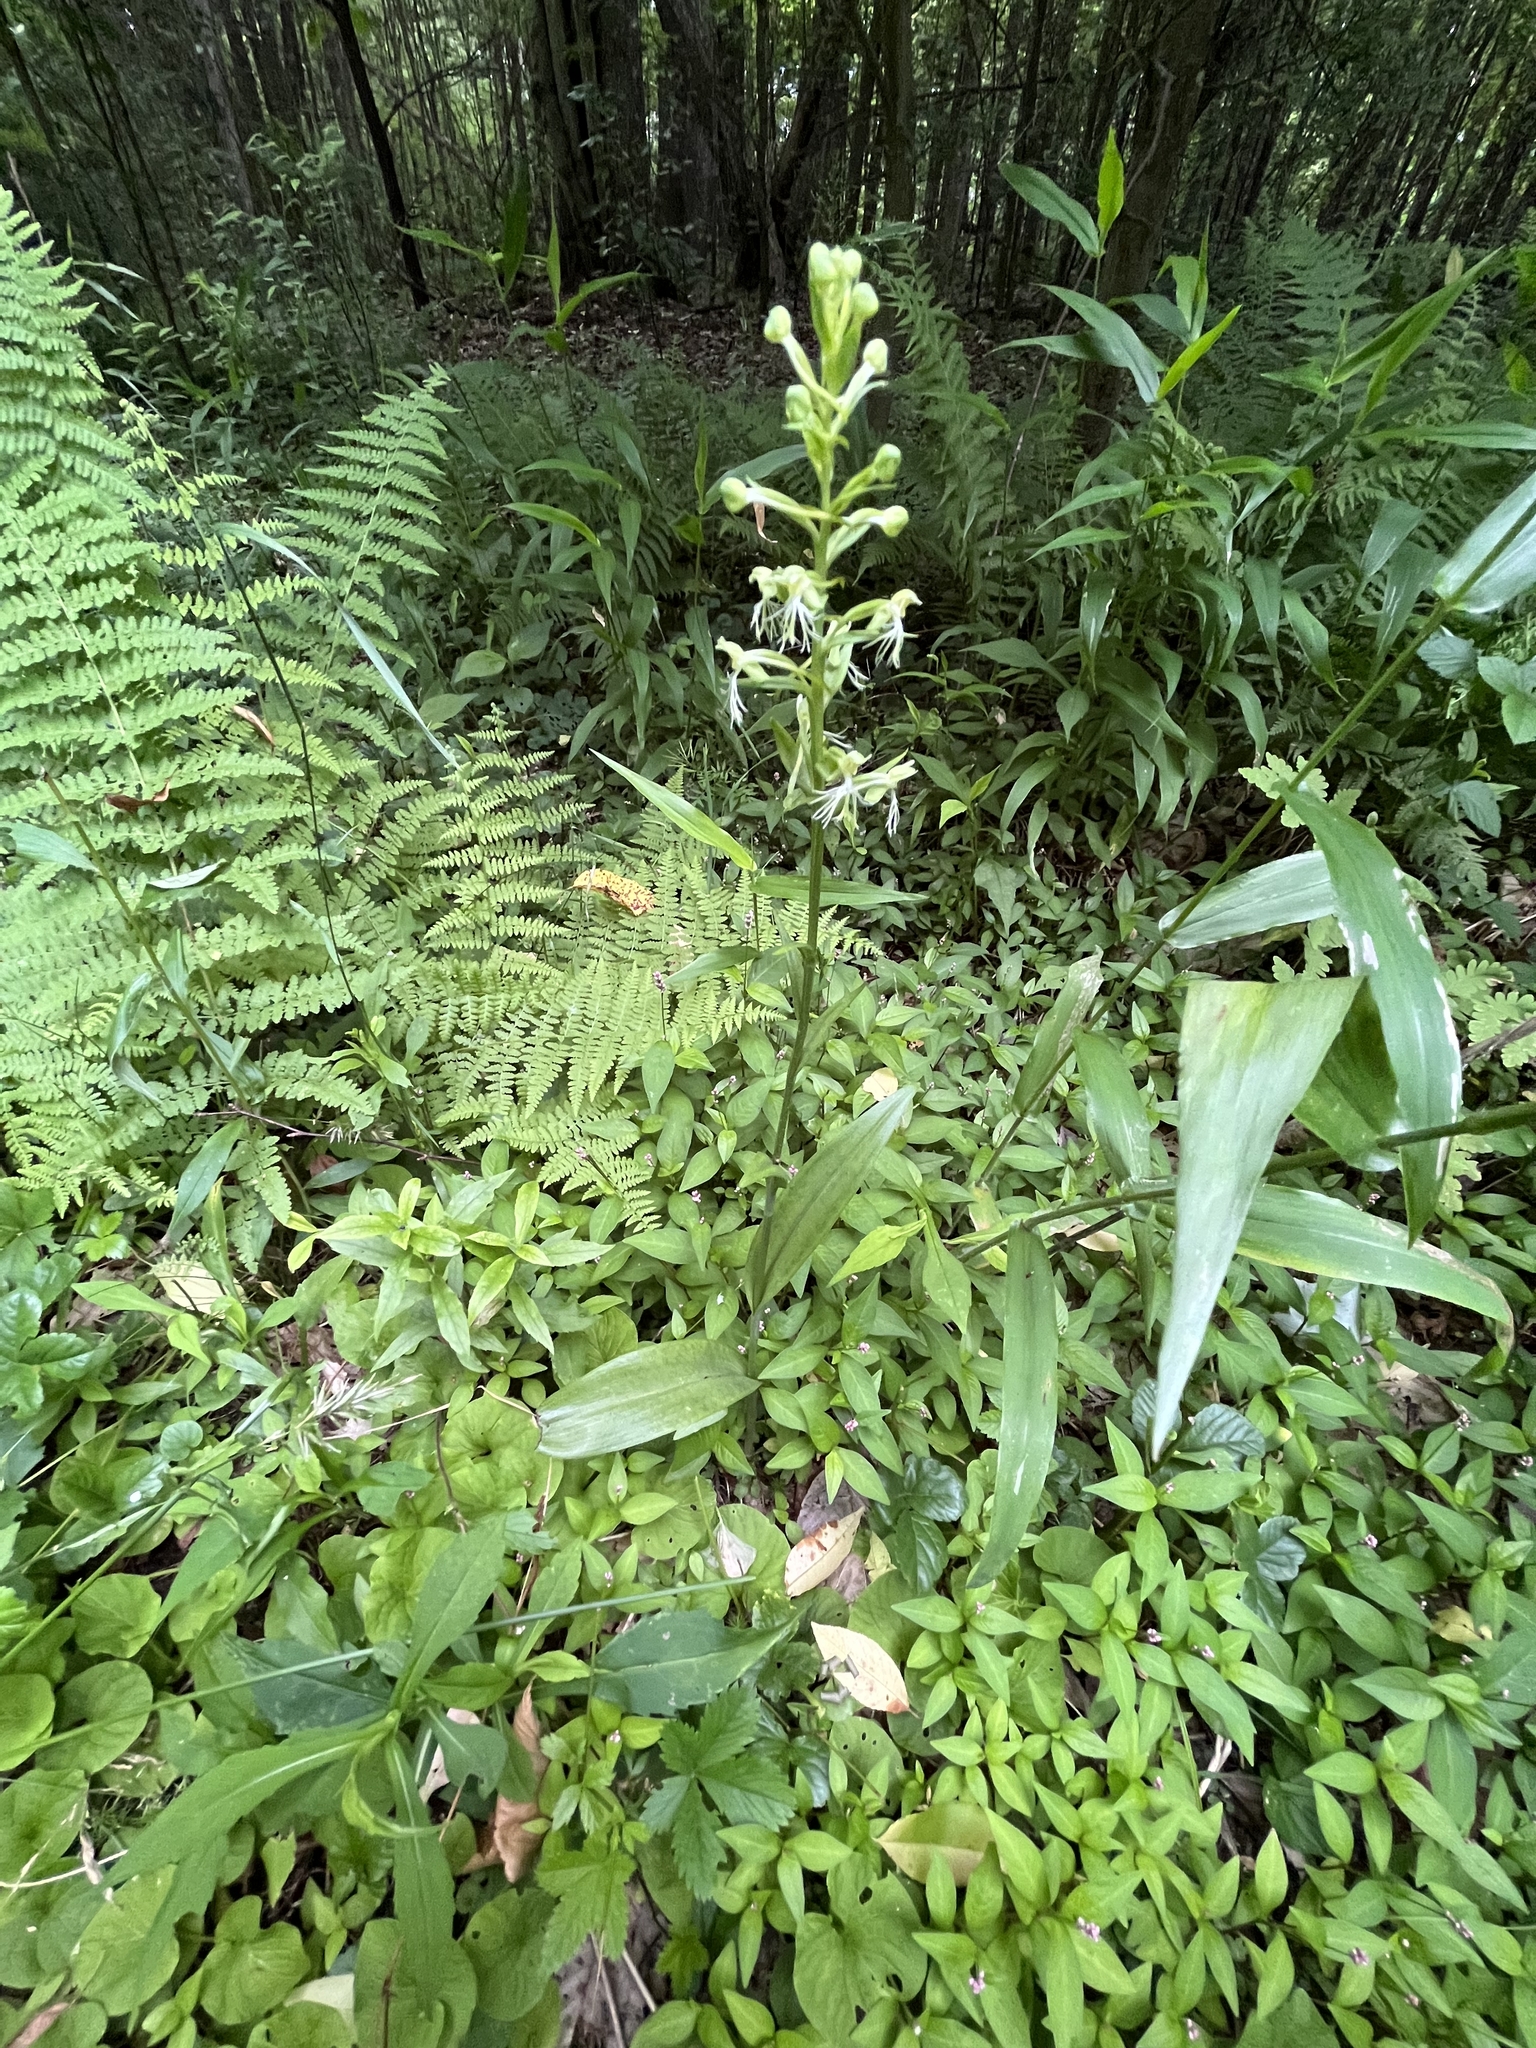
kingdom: Plantae
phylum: Tracheophyta
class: Liliopsida
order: Asparagales
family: Orchidaceae
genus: Platanthera
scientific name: Platanthera lacera
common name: Green fringed orchid
